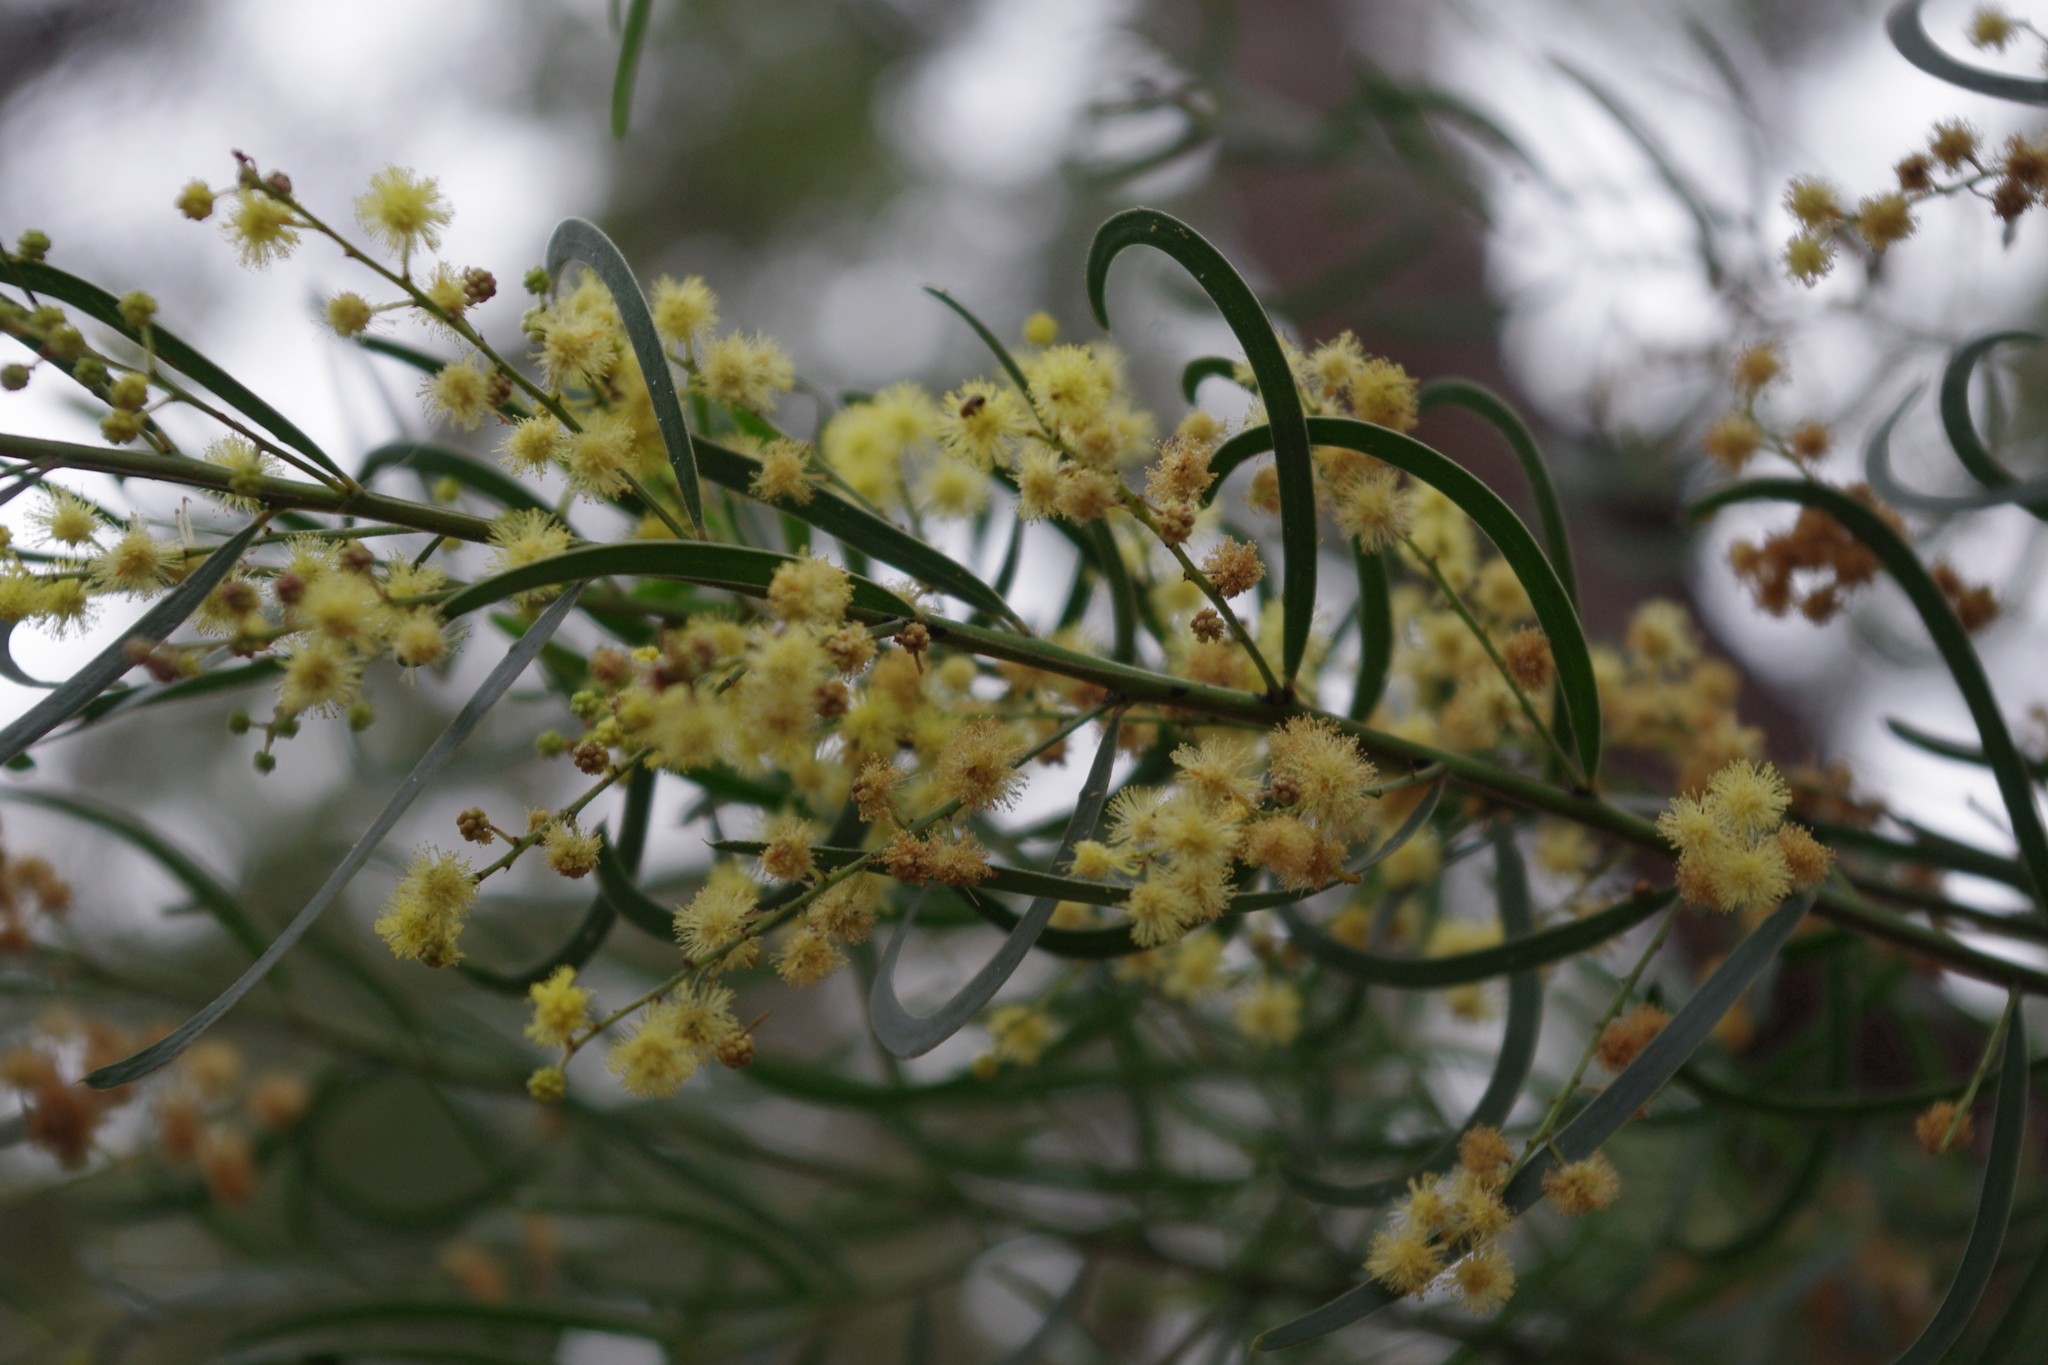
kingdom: Plantae
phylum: Tracheophyta
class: Magnoliopsida
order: Fabales
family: Fabaceae
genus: Acacia
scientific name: Acacia fimbriata
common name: Brisbane golden wattle
